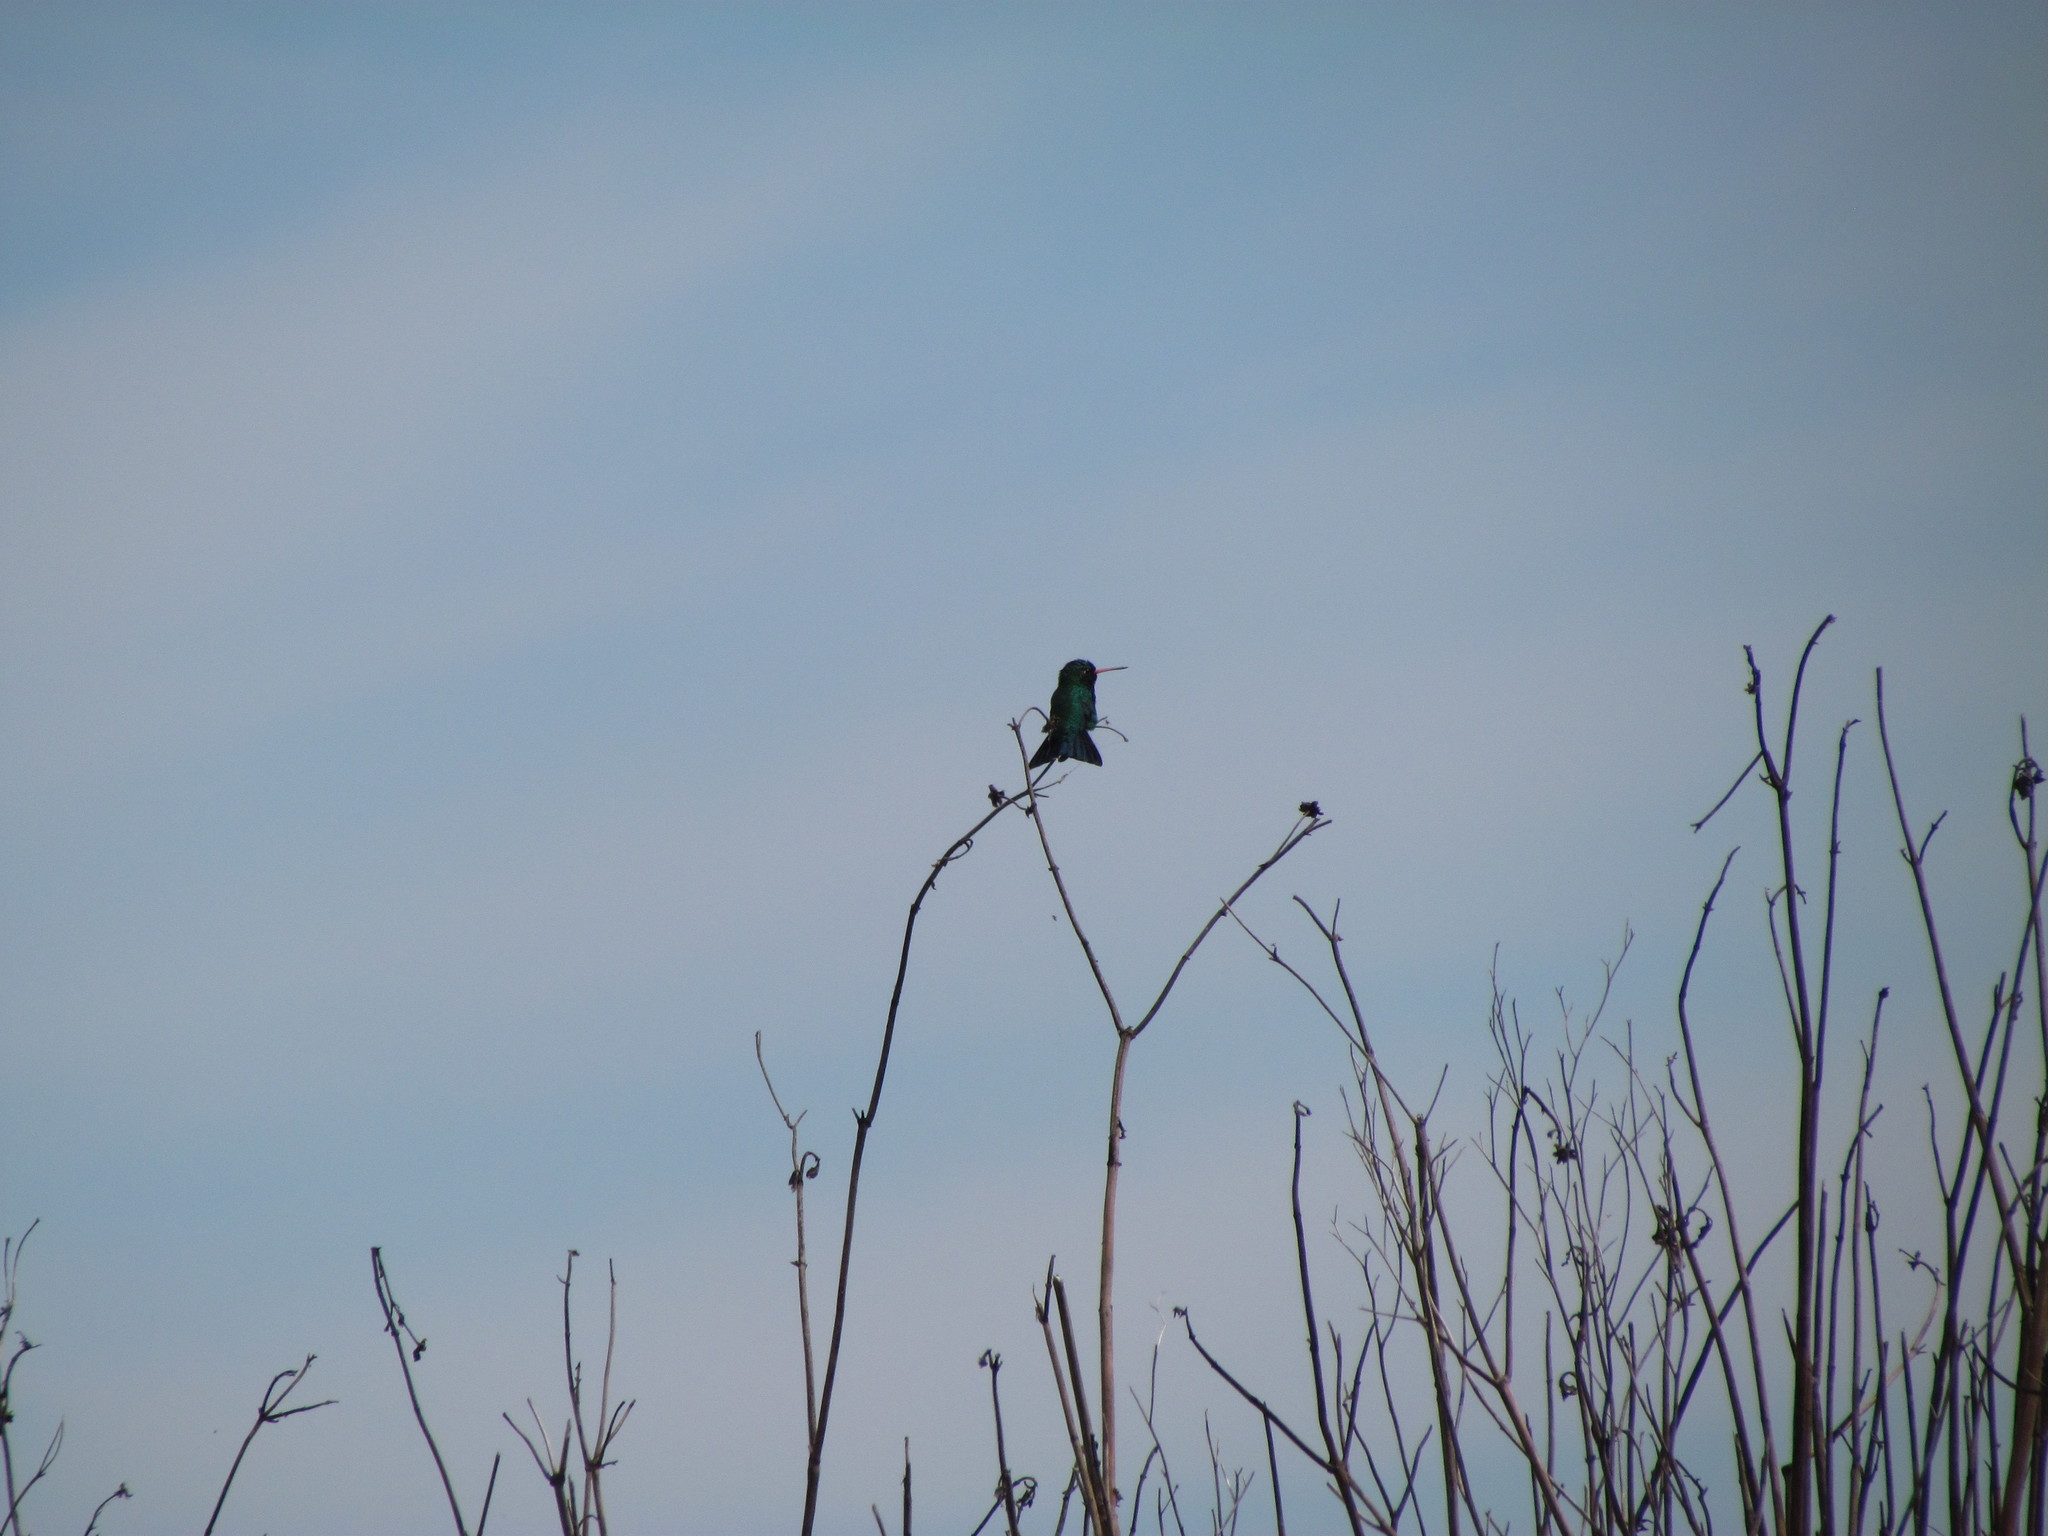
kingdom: Animalia
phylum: Chordata
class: Aves
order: Apodiformes
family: Trochilidae
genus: Chlorostilbon
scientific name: Chlorostilbon lucidus
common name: Glittering-bellied emerald
